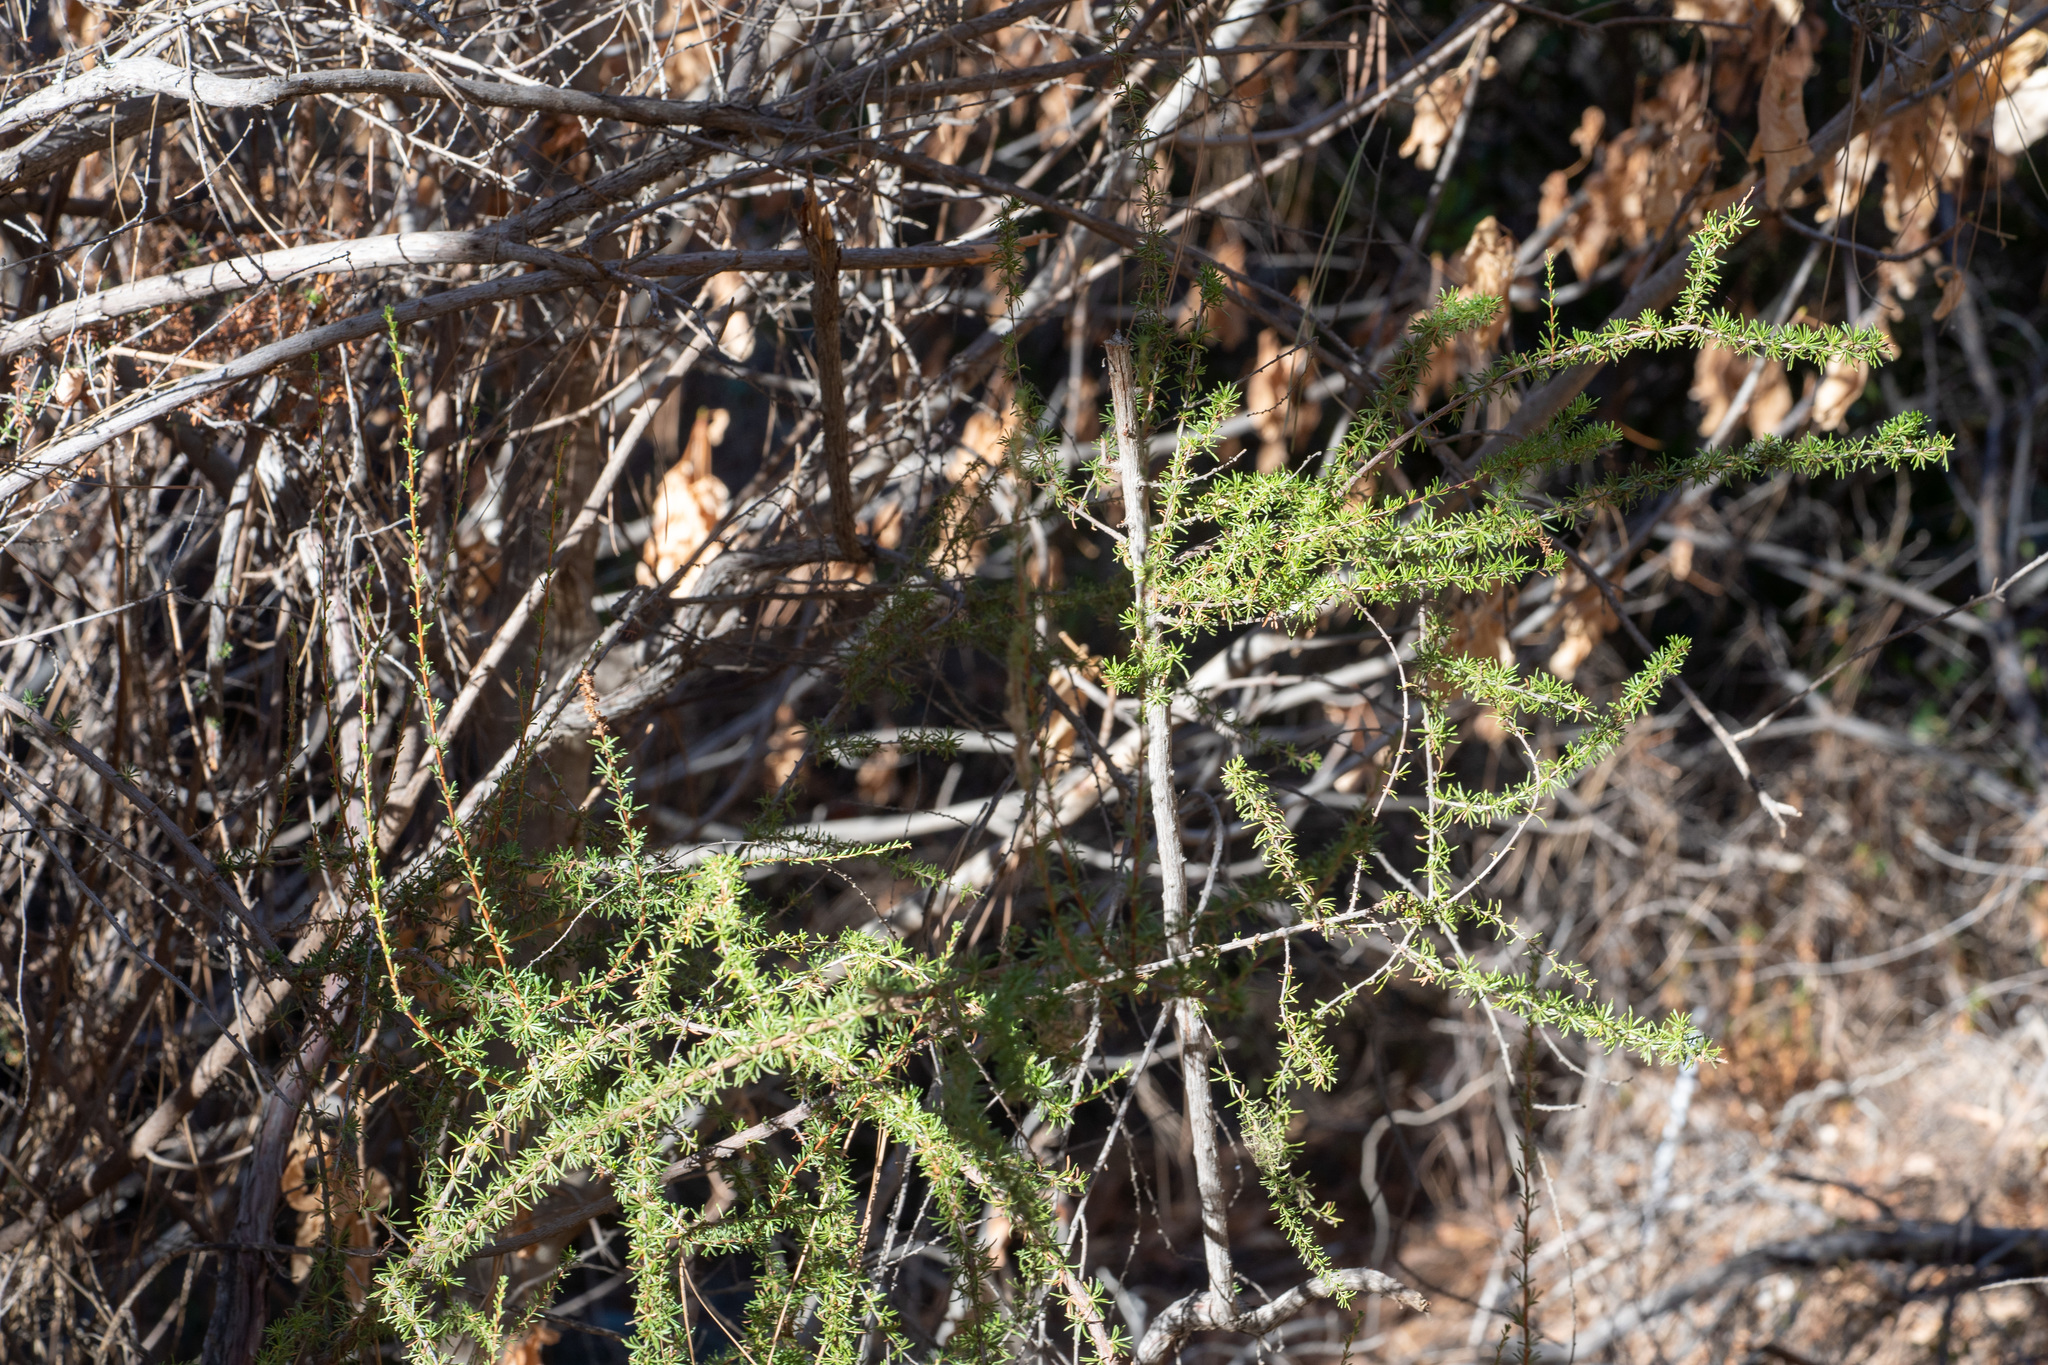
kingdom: Plantae
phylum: Tracheophyta
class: Magnoliopsida
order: Rosales
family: Rosaceae
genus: Adenostoma
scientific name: Adenostoma fasciculatum
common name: Chamise
